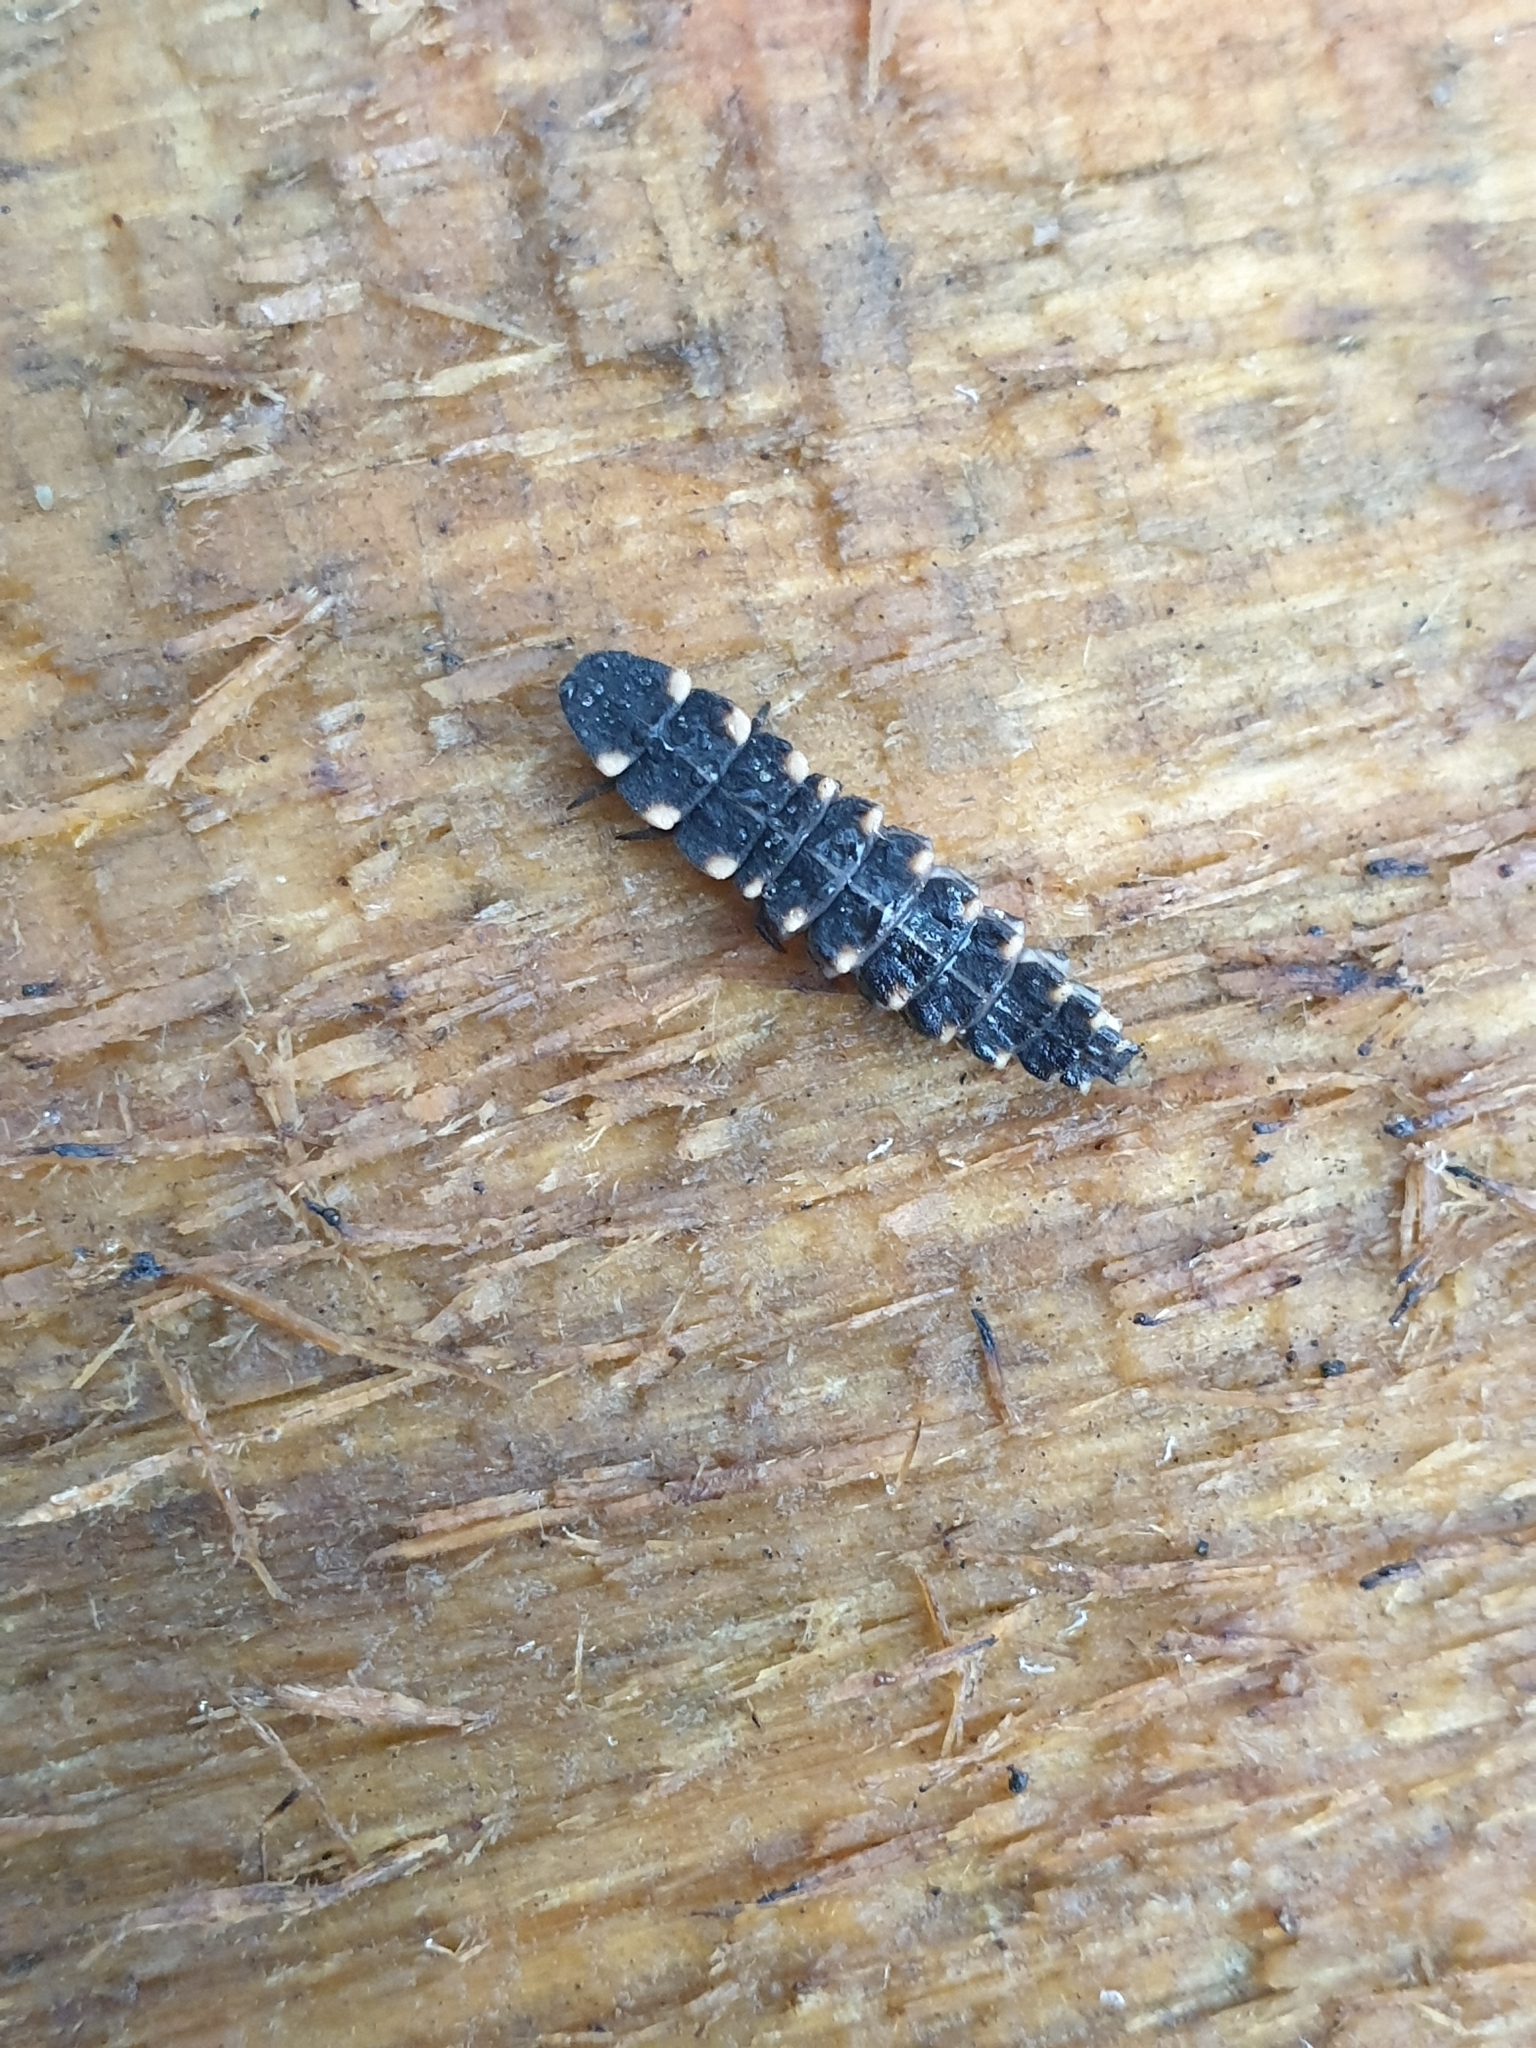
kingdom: Animalia
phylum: Arthropoda
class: Insecta
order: Coleoptera
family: Lampyridae
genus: Lampyris
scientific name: Lampyris noctiluca
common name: Glow-worm
